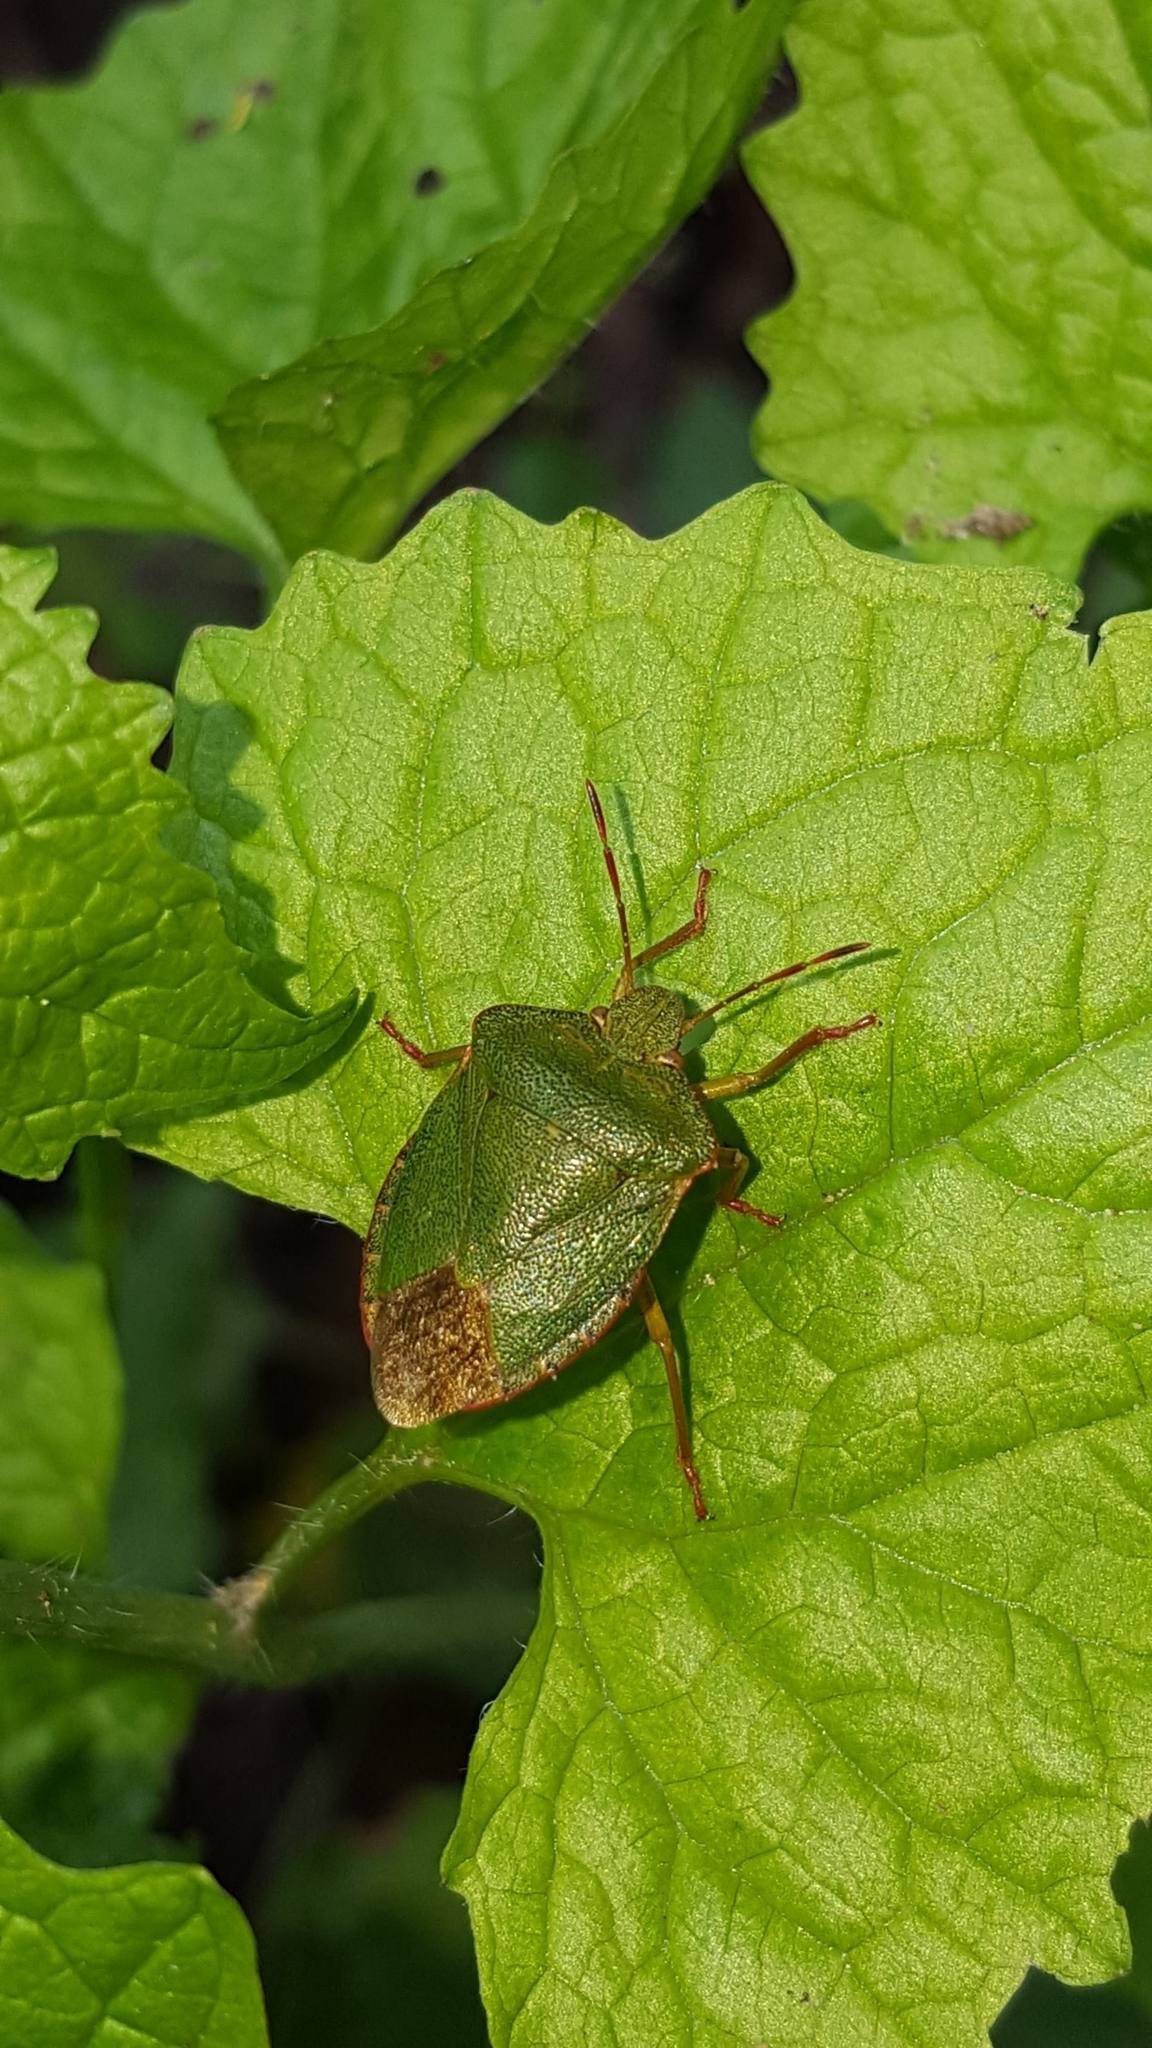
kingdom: Animalia
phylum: Arthropoda
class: Insecta
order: Hemiptera
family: Pentatomidae
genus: Palomena
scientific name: Palomena prasina
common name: Green shieldbug
